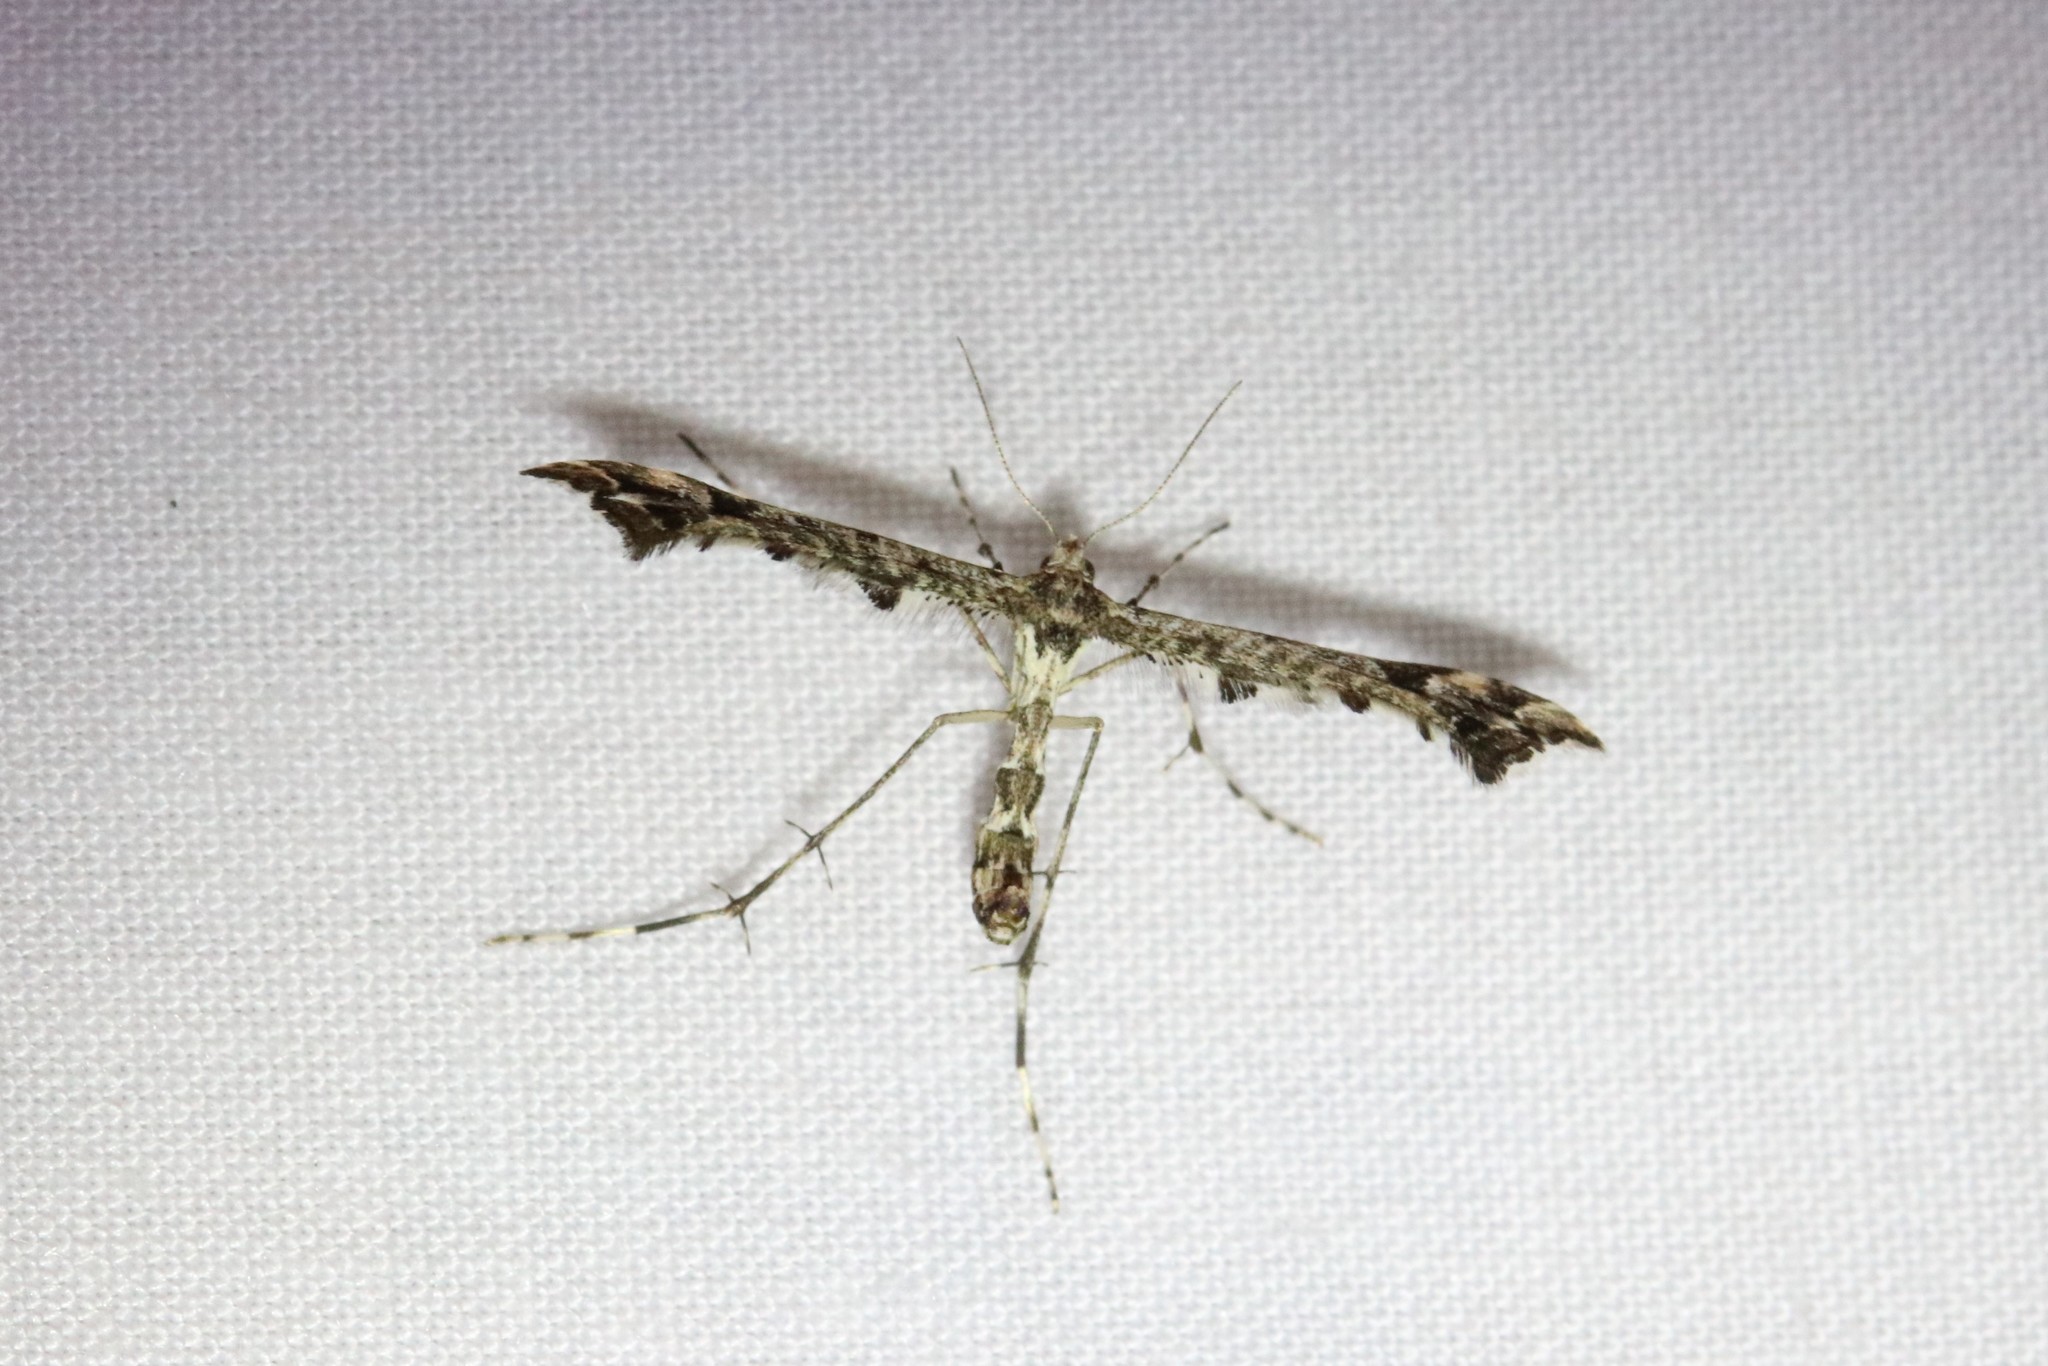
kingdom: Animalia
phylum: Arthropoda
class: Insecta
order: Lepidoptera
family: Pterophoridae
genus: Amblyptilia
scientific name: Amblyptilia pica
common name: Geranium plume moth
